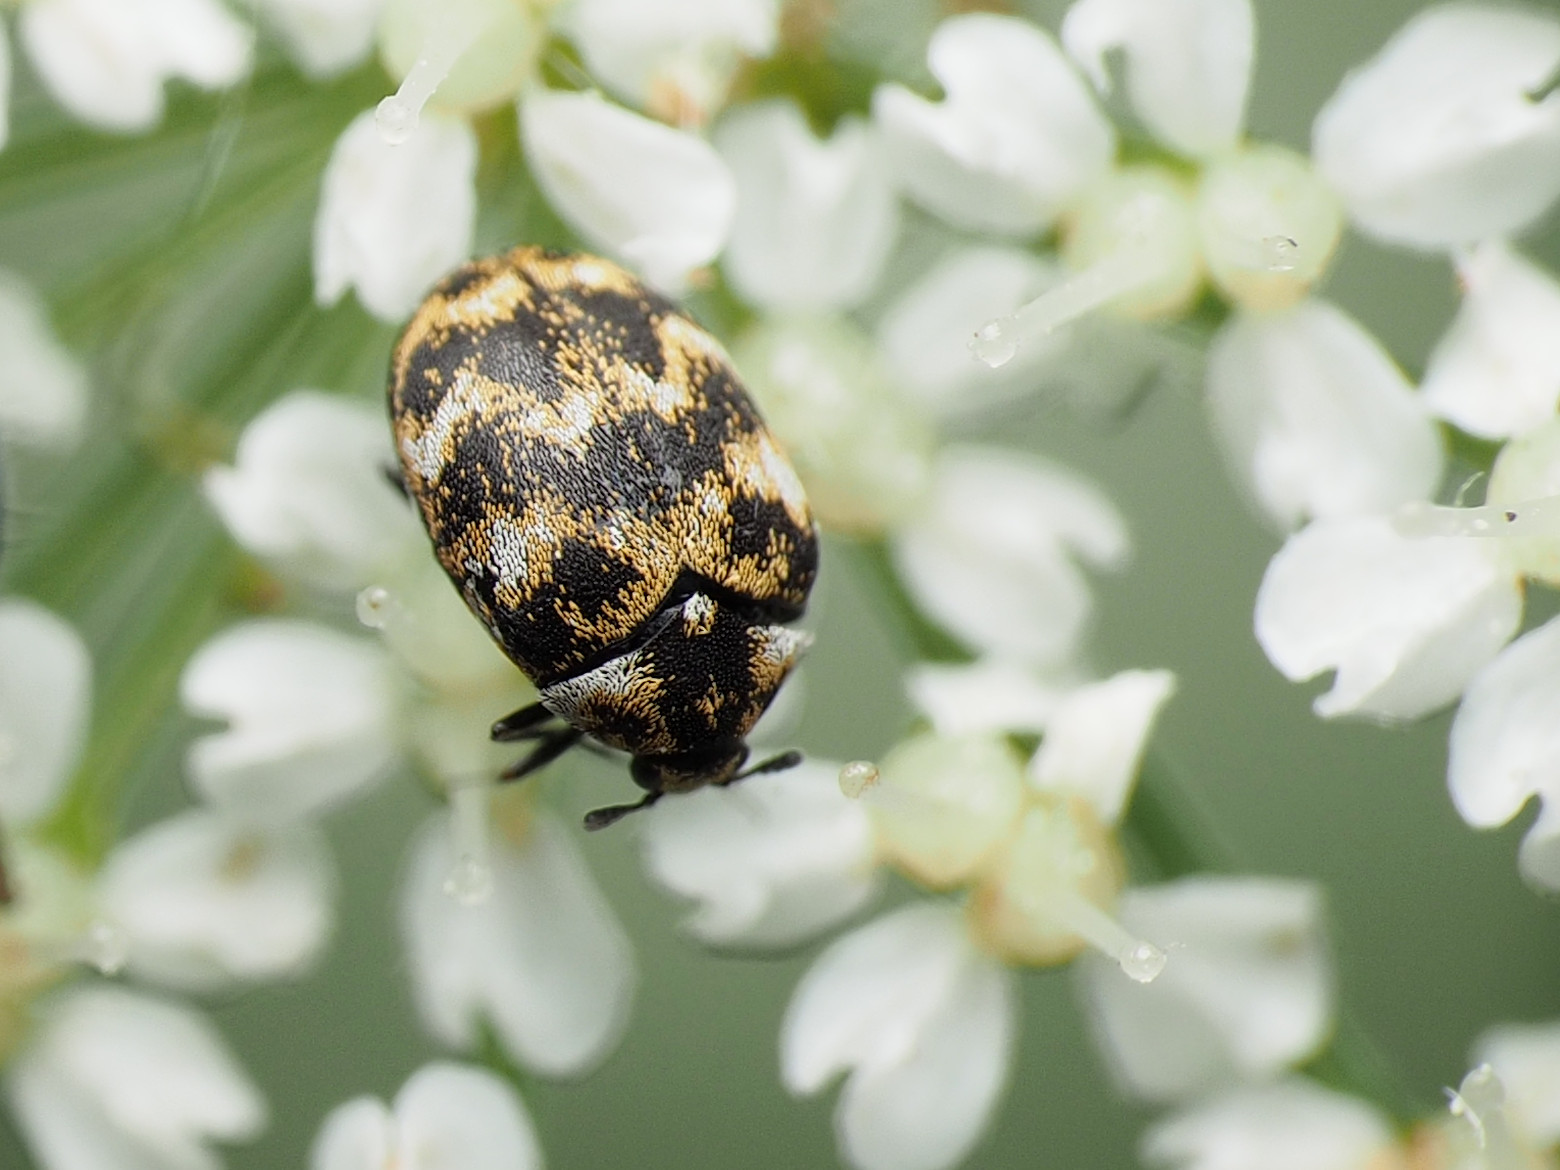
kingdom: Animalia
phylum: Arthropoda
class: Insecta
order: Coleoptera
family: Dermestidae
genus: Anthrenus
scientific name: Anthrenus verbasci
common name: Varied carpet beetle
